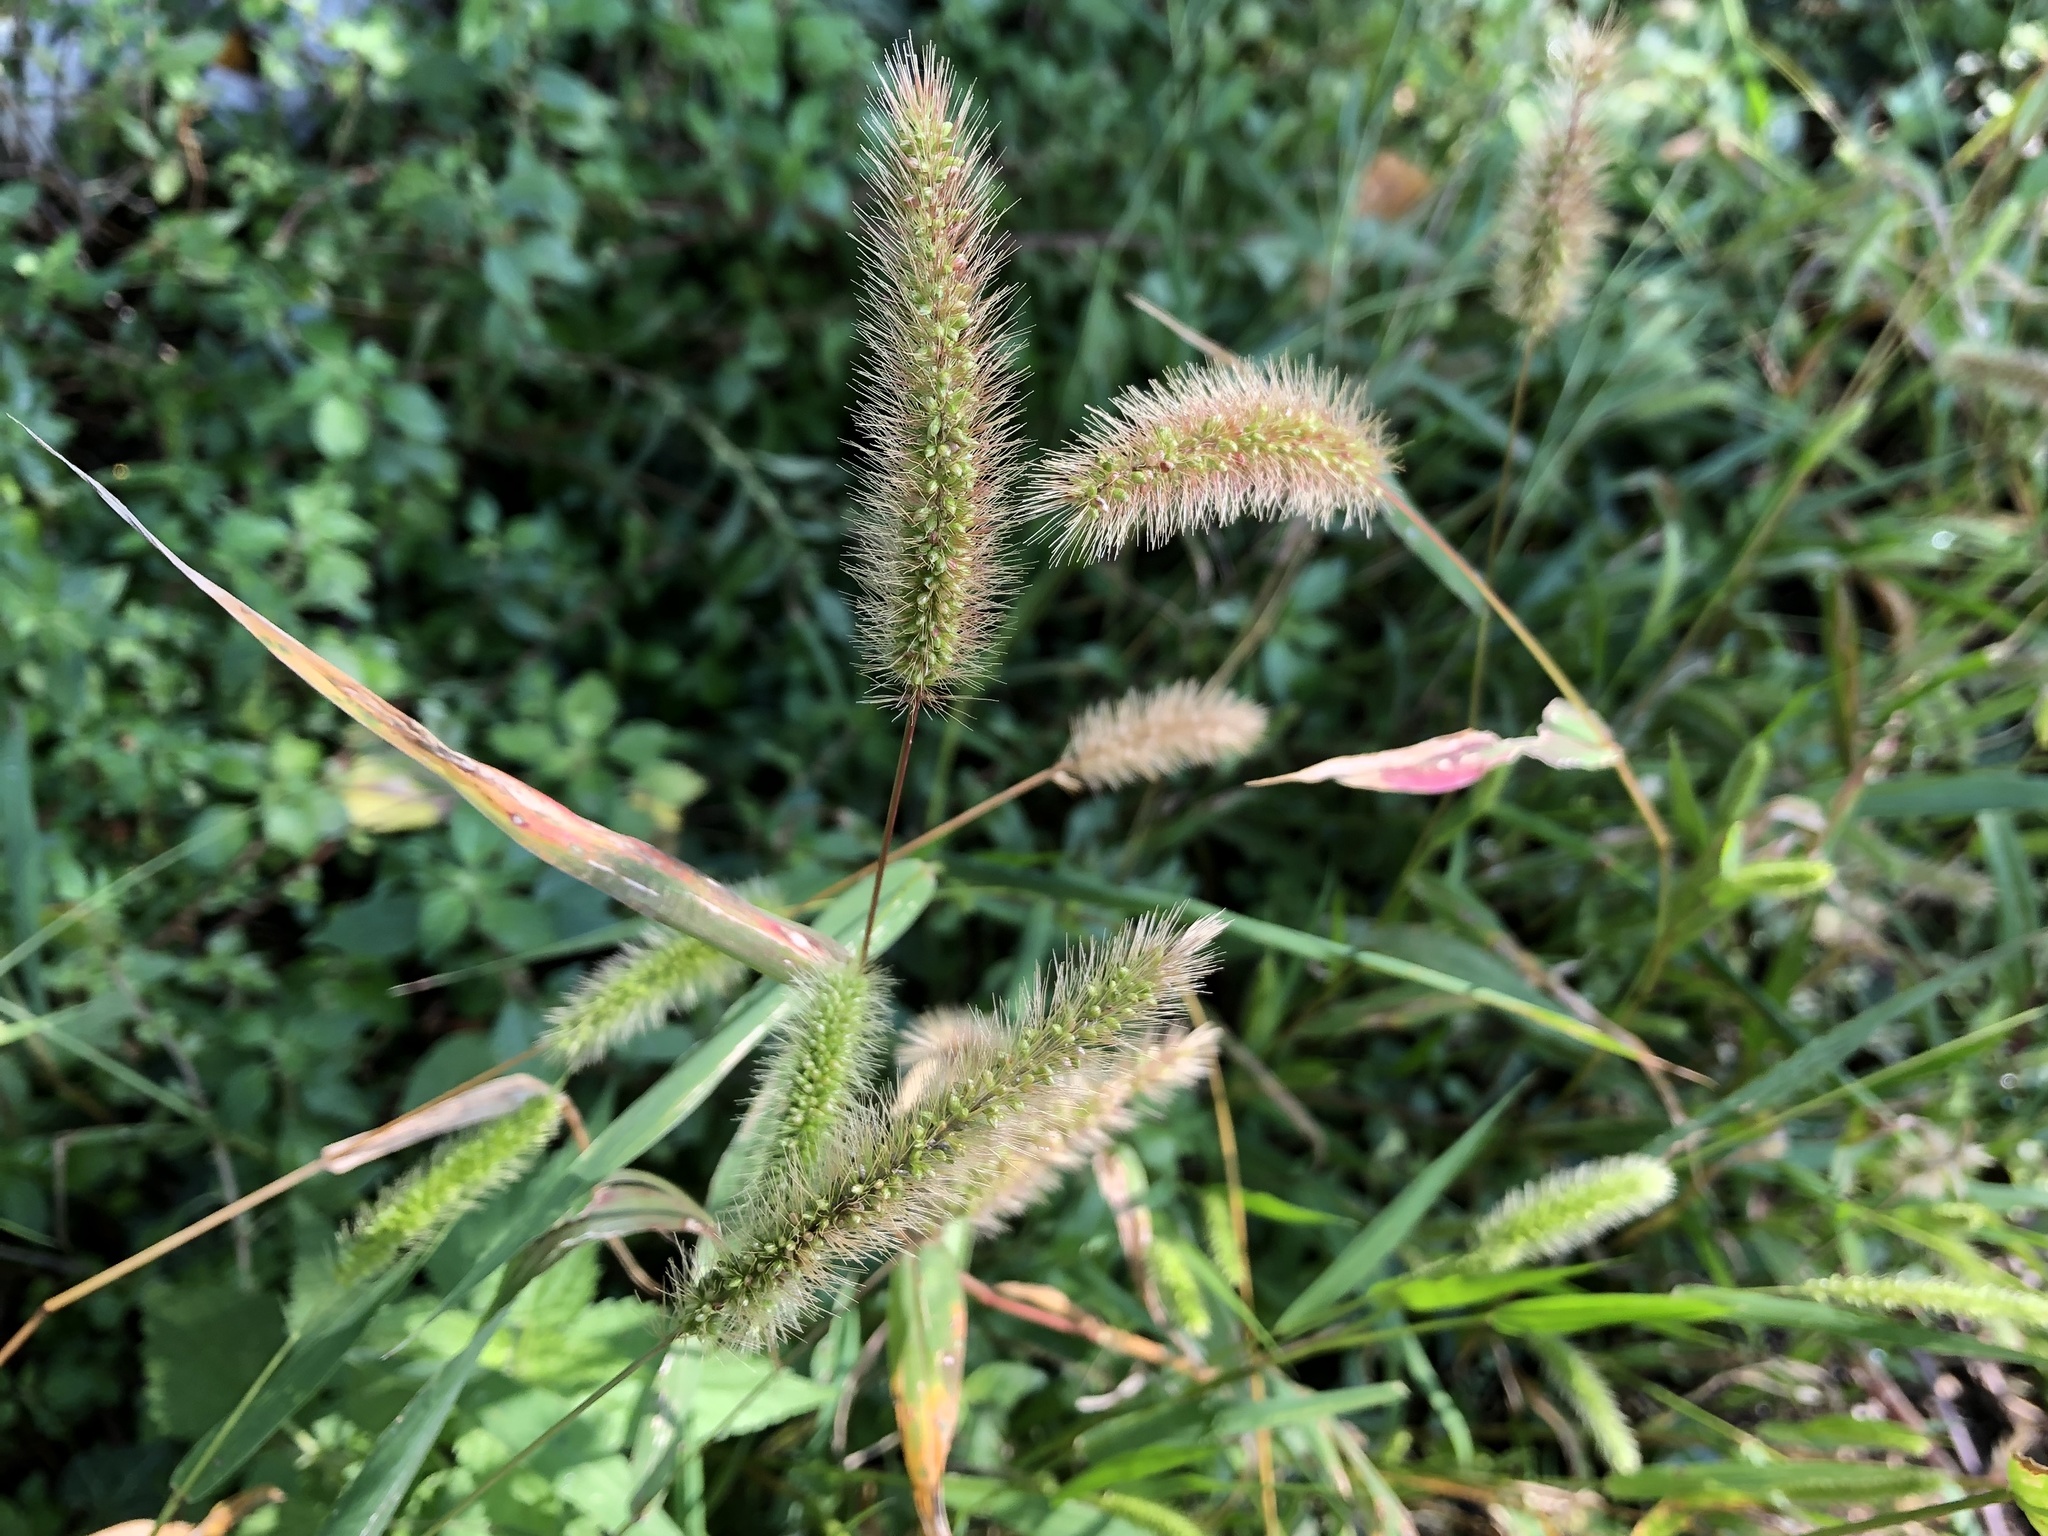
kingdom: Plantae
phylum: Tracheophyta
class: Liliopsida
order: Poales
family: Poaceae
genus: Setaria
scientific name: Setaria viridis
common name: Green bristlegrass
